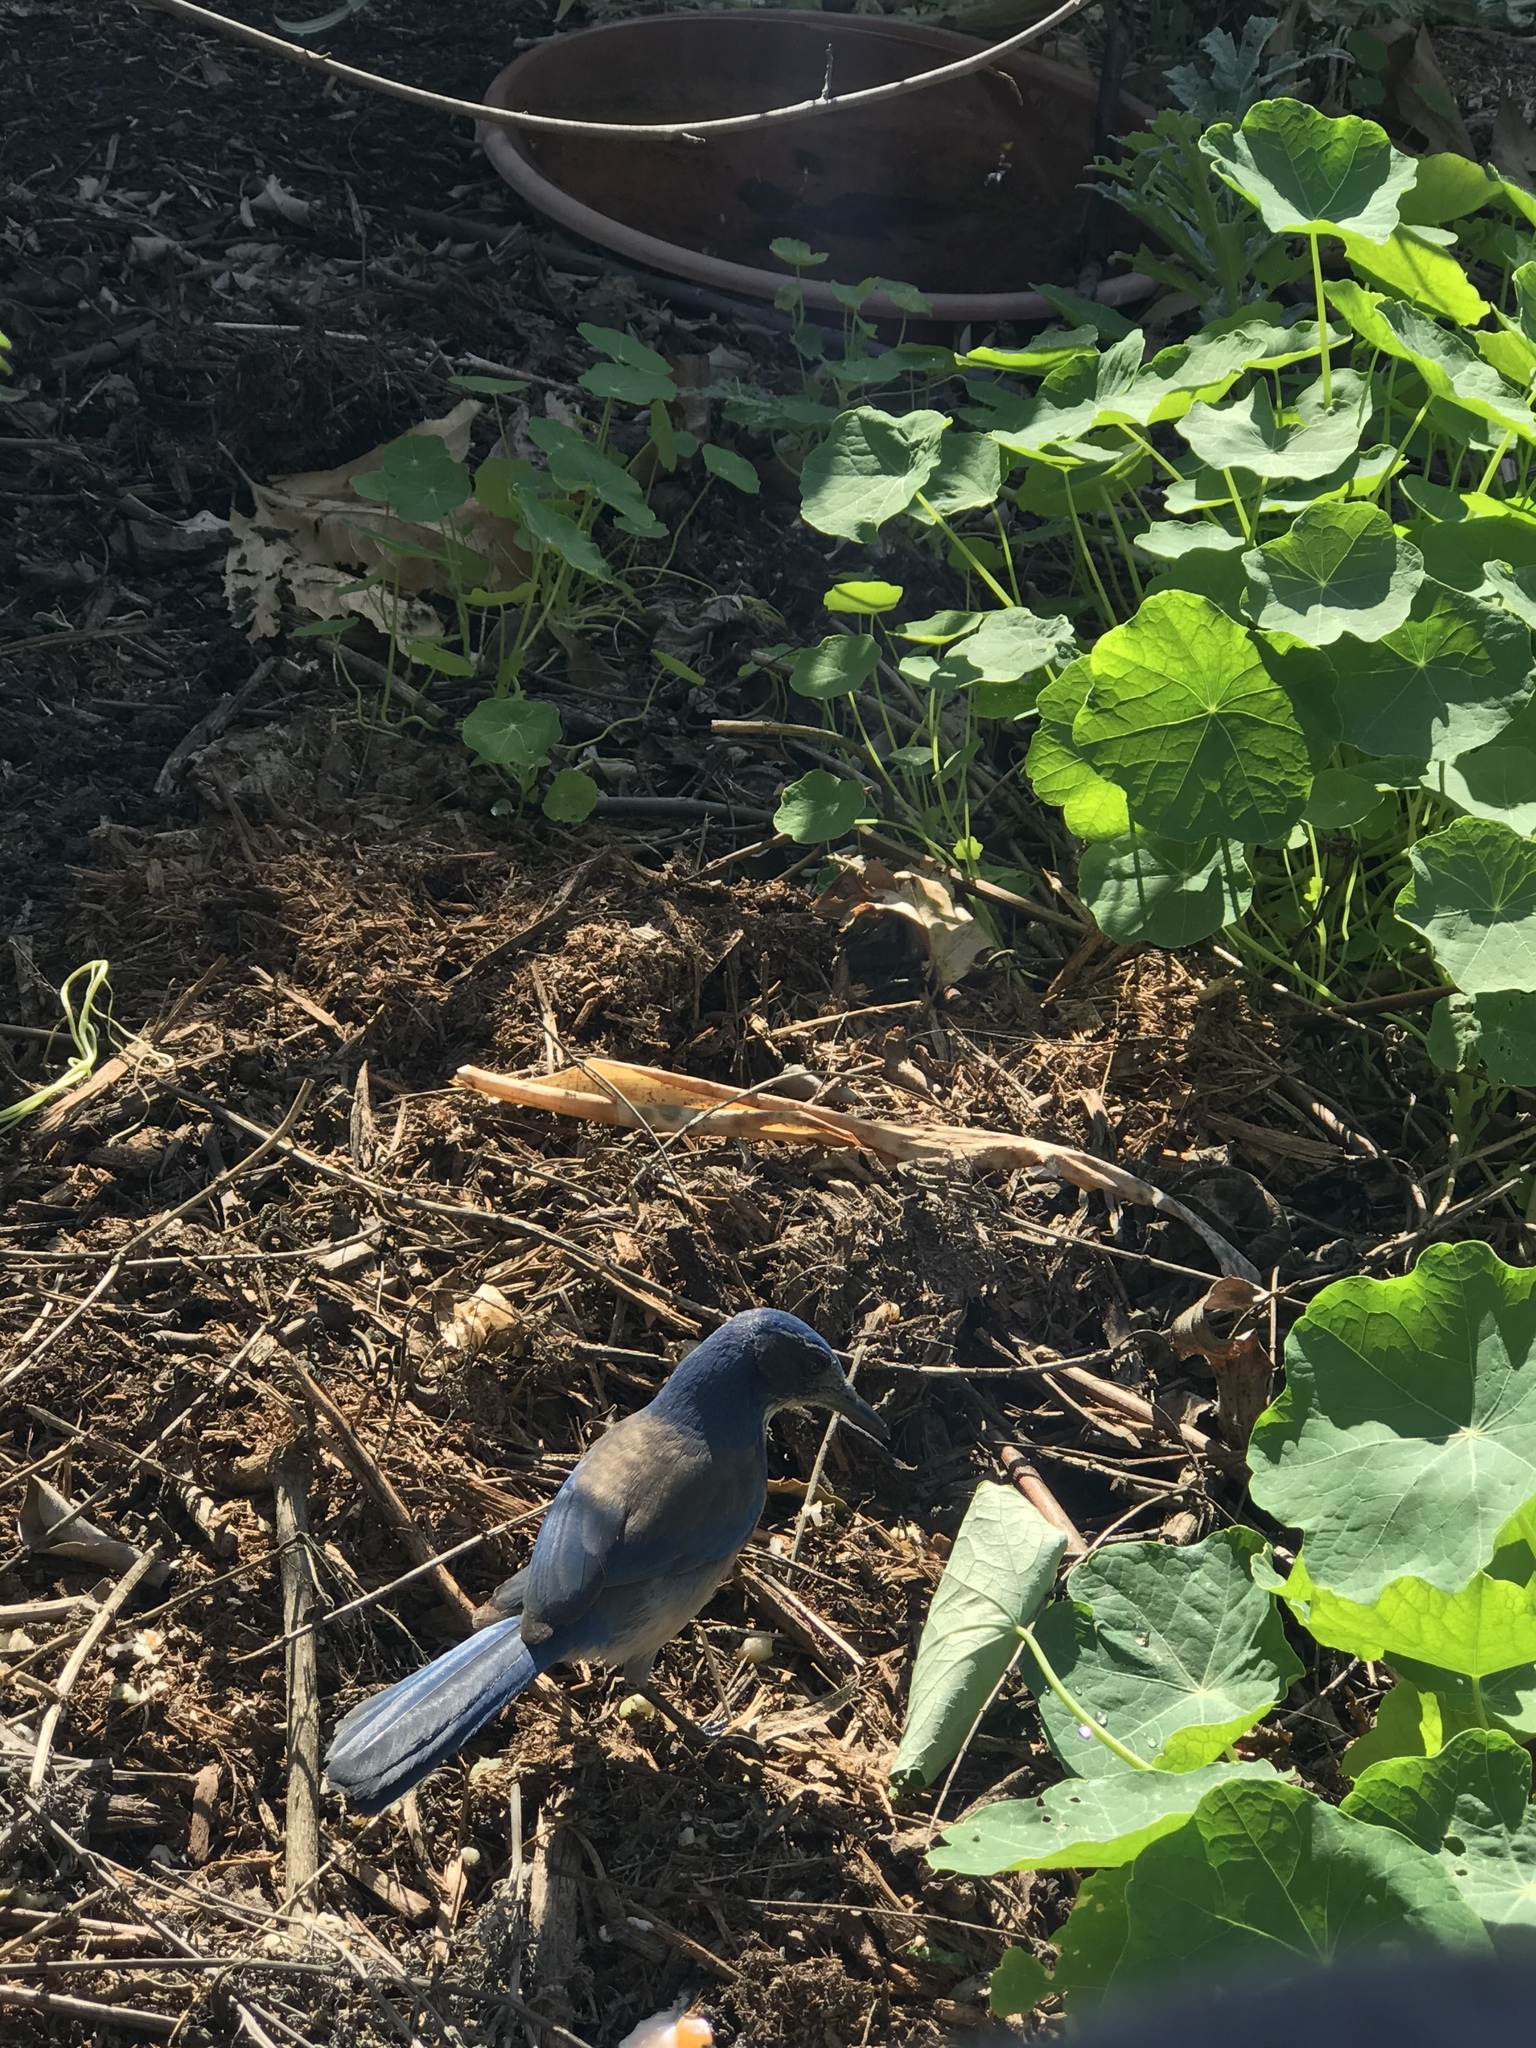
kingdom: Animalia
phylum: Chordata
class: Aves
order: Passeriformes
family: Corvidae
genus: Aphelocoma
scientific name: Aphelocoma californica
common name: California scrub-jay
